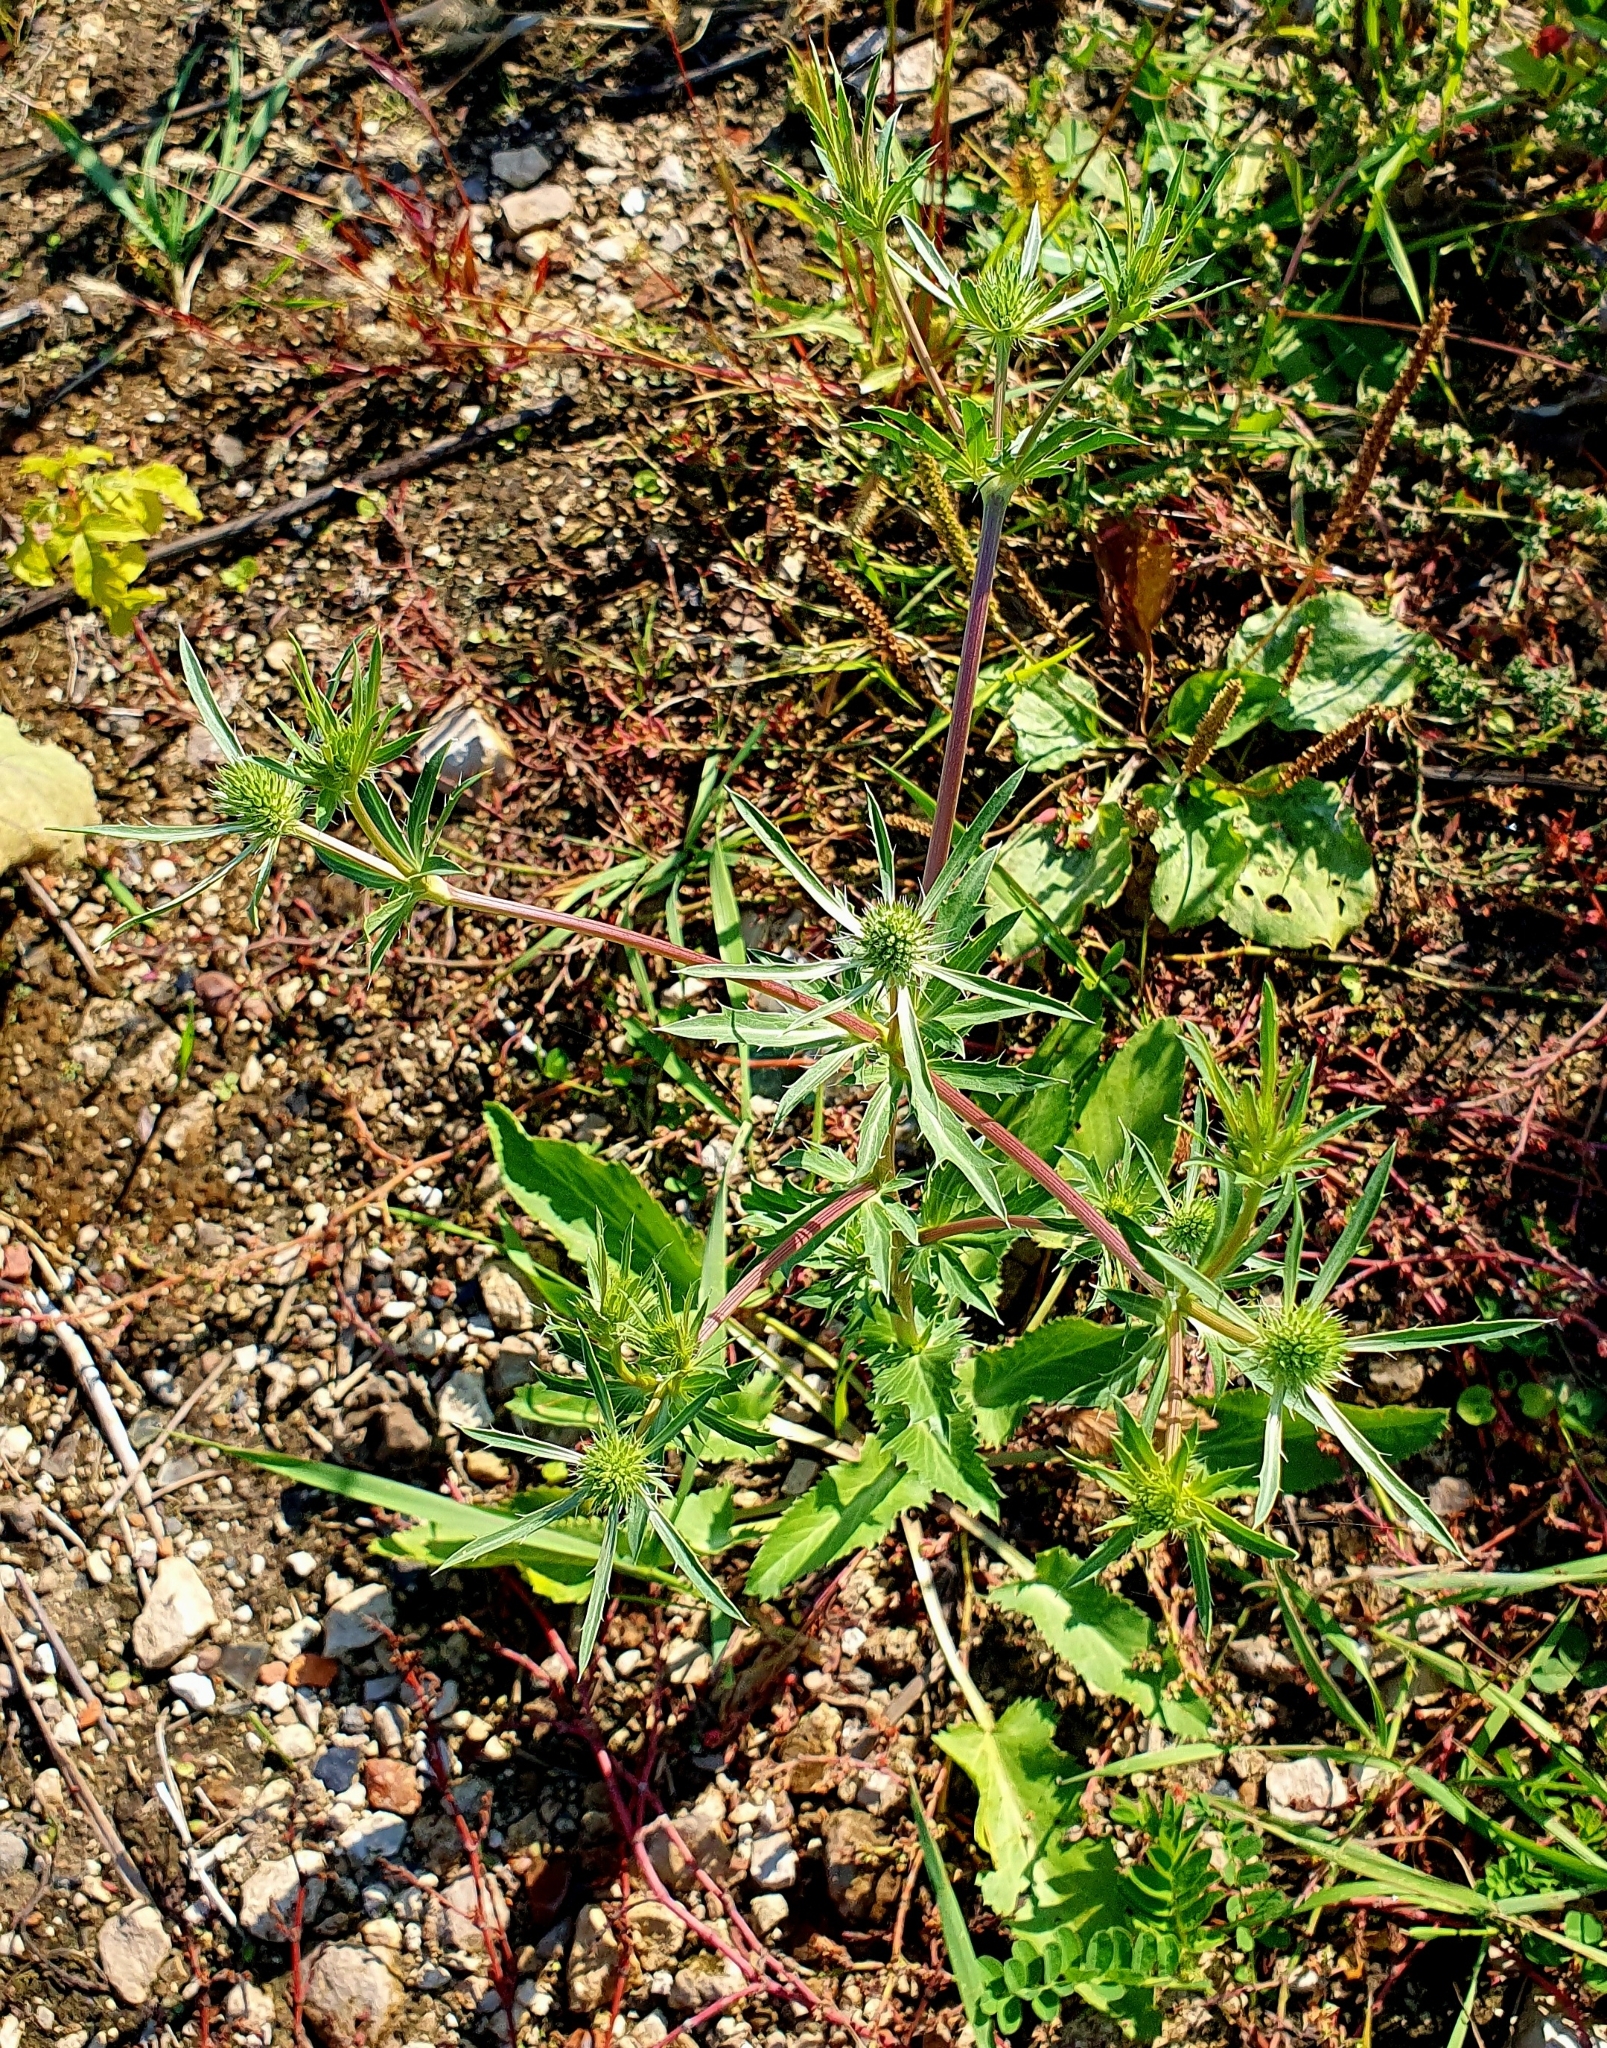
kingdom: Plantae
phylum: Tracheophyta
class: Magnoliopsida
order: Apiales
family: Apiaceae
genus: Eryngium
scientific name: Eryngium planum
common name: Blue eryngo
